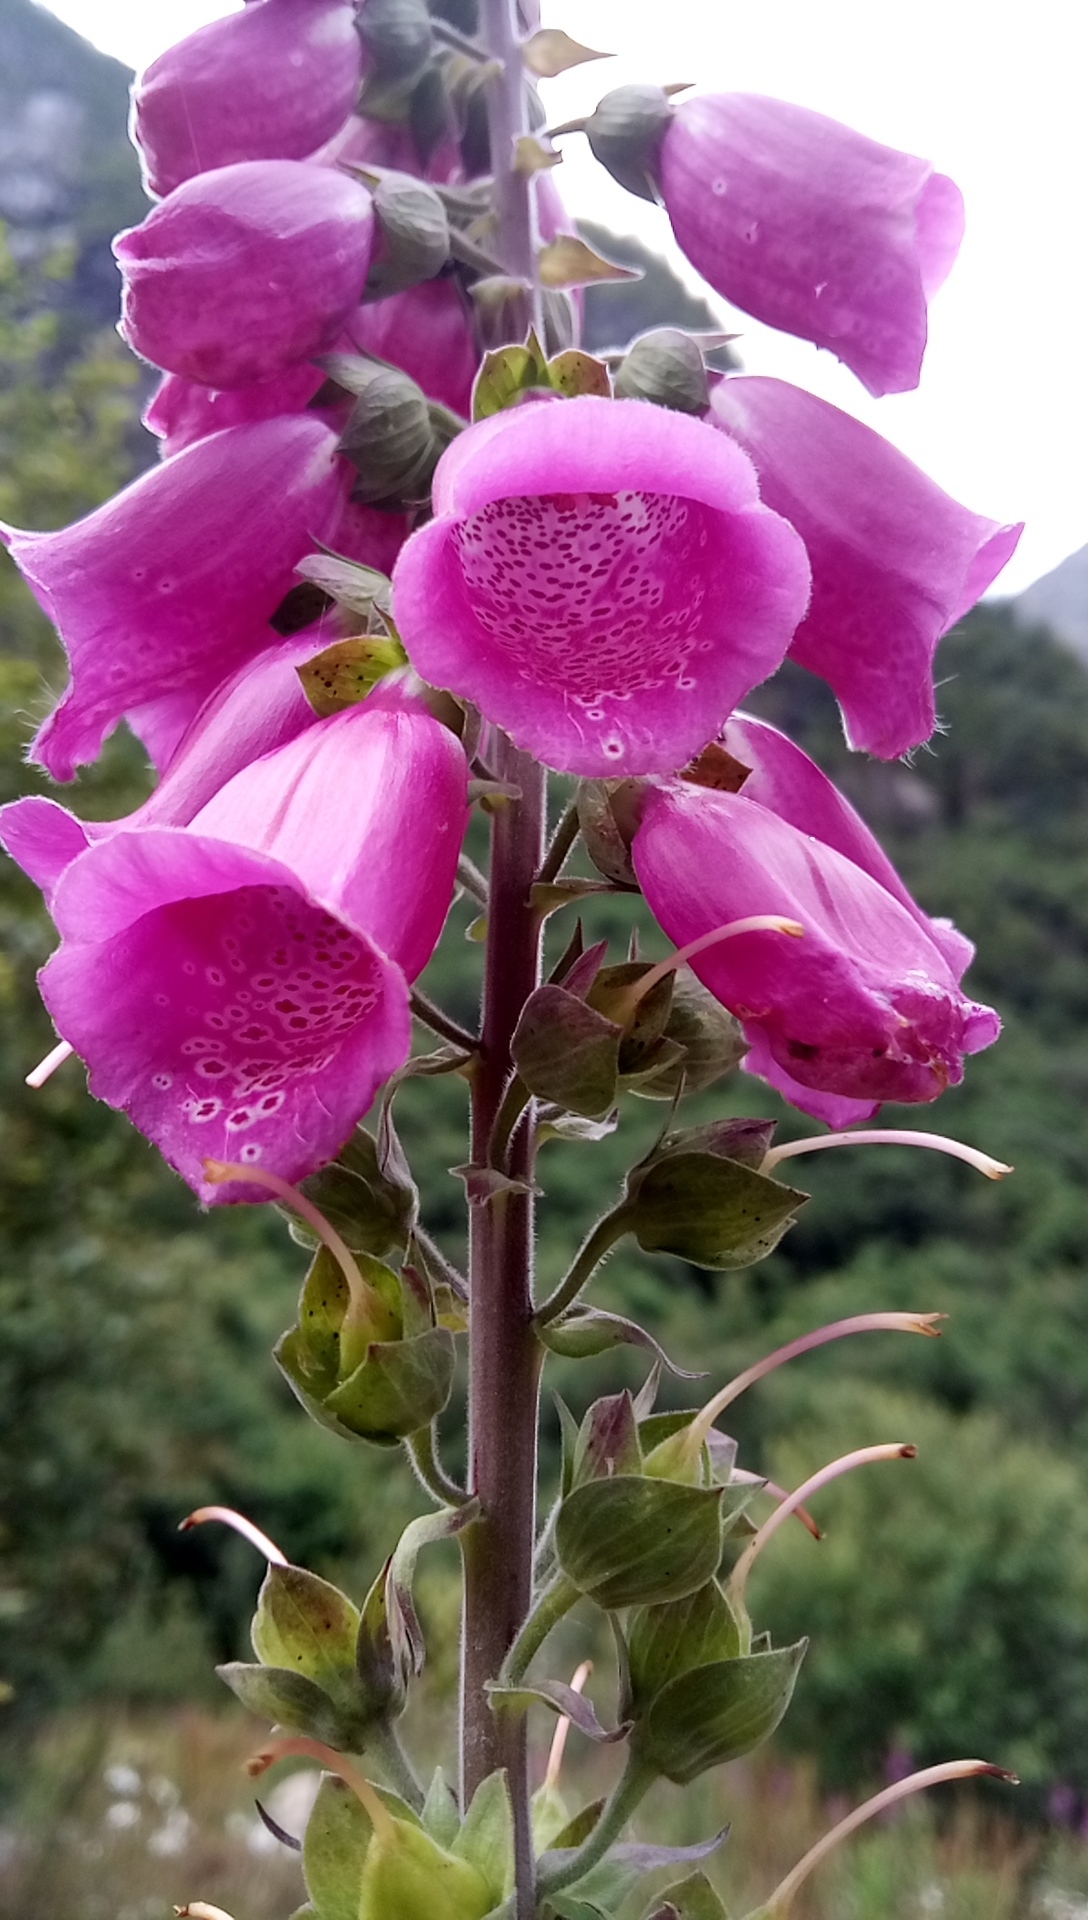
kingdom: Plantae
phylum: Tracheophyta
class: Magnoliopsida
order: Lamiales
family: Plantaginaceae
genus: Digitalis
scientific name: Digitalis purpurea
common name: Foxglove
